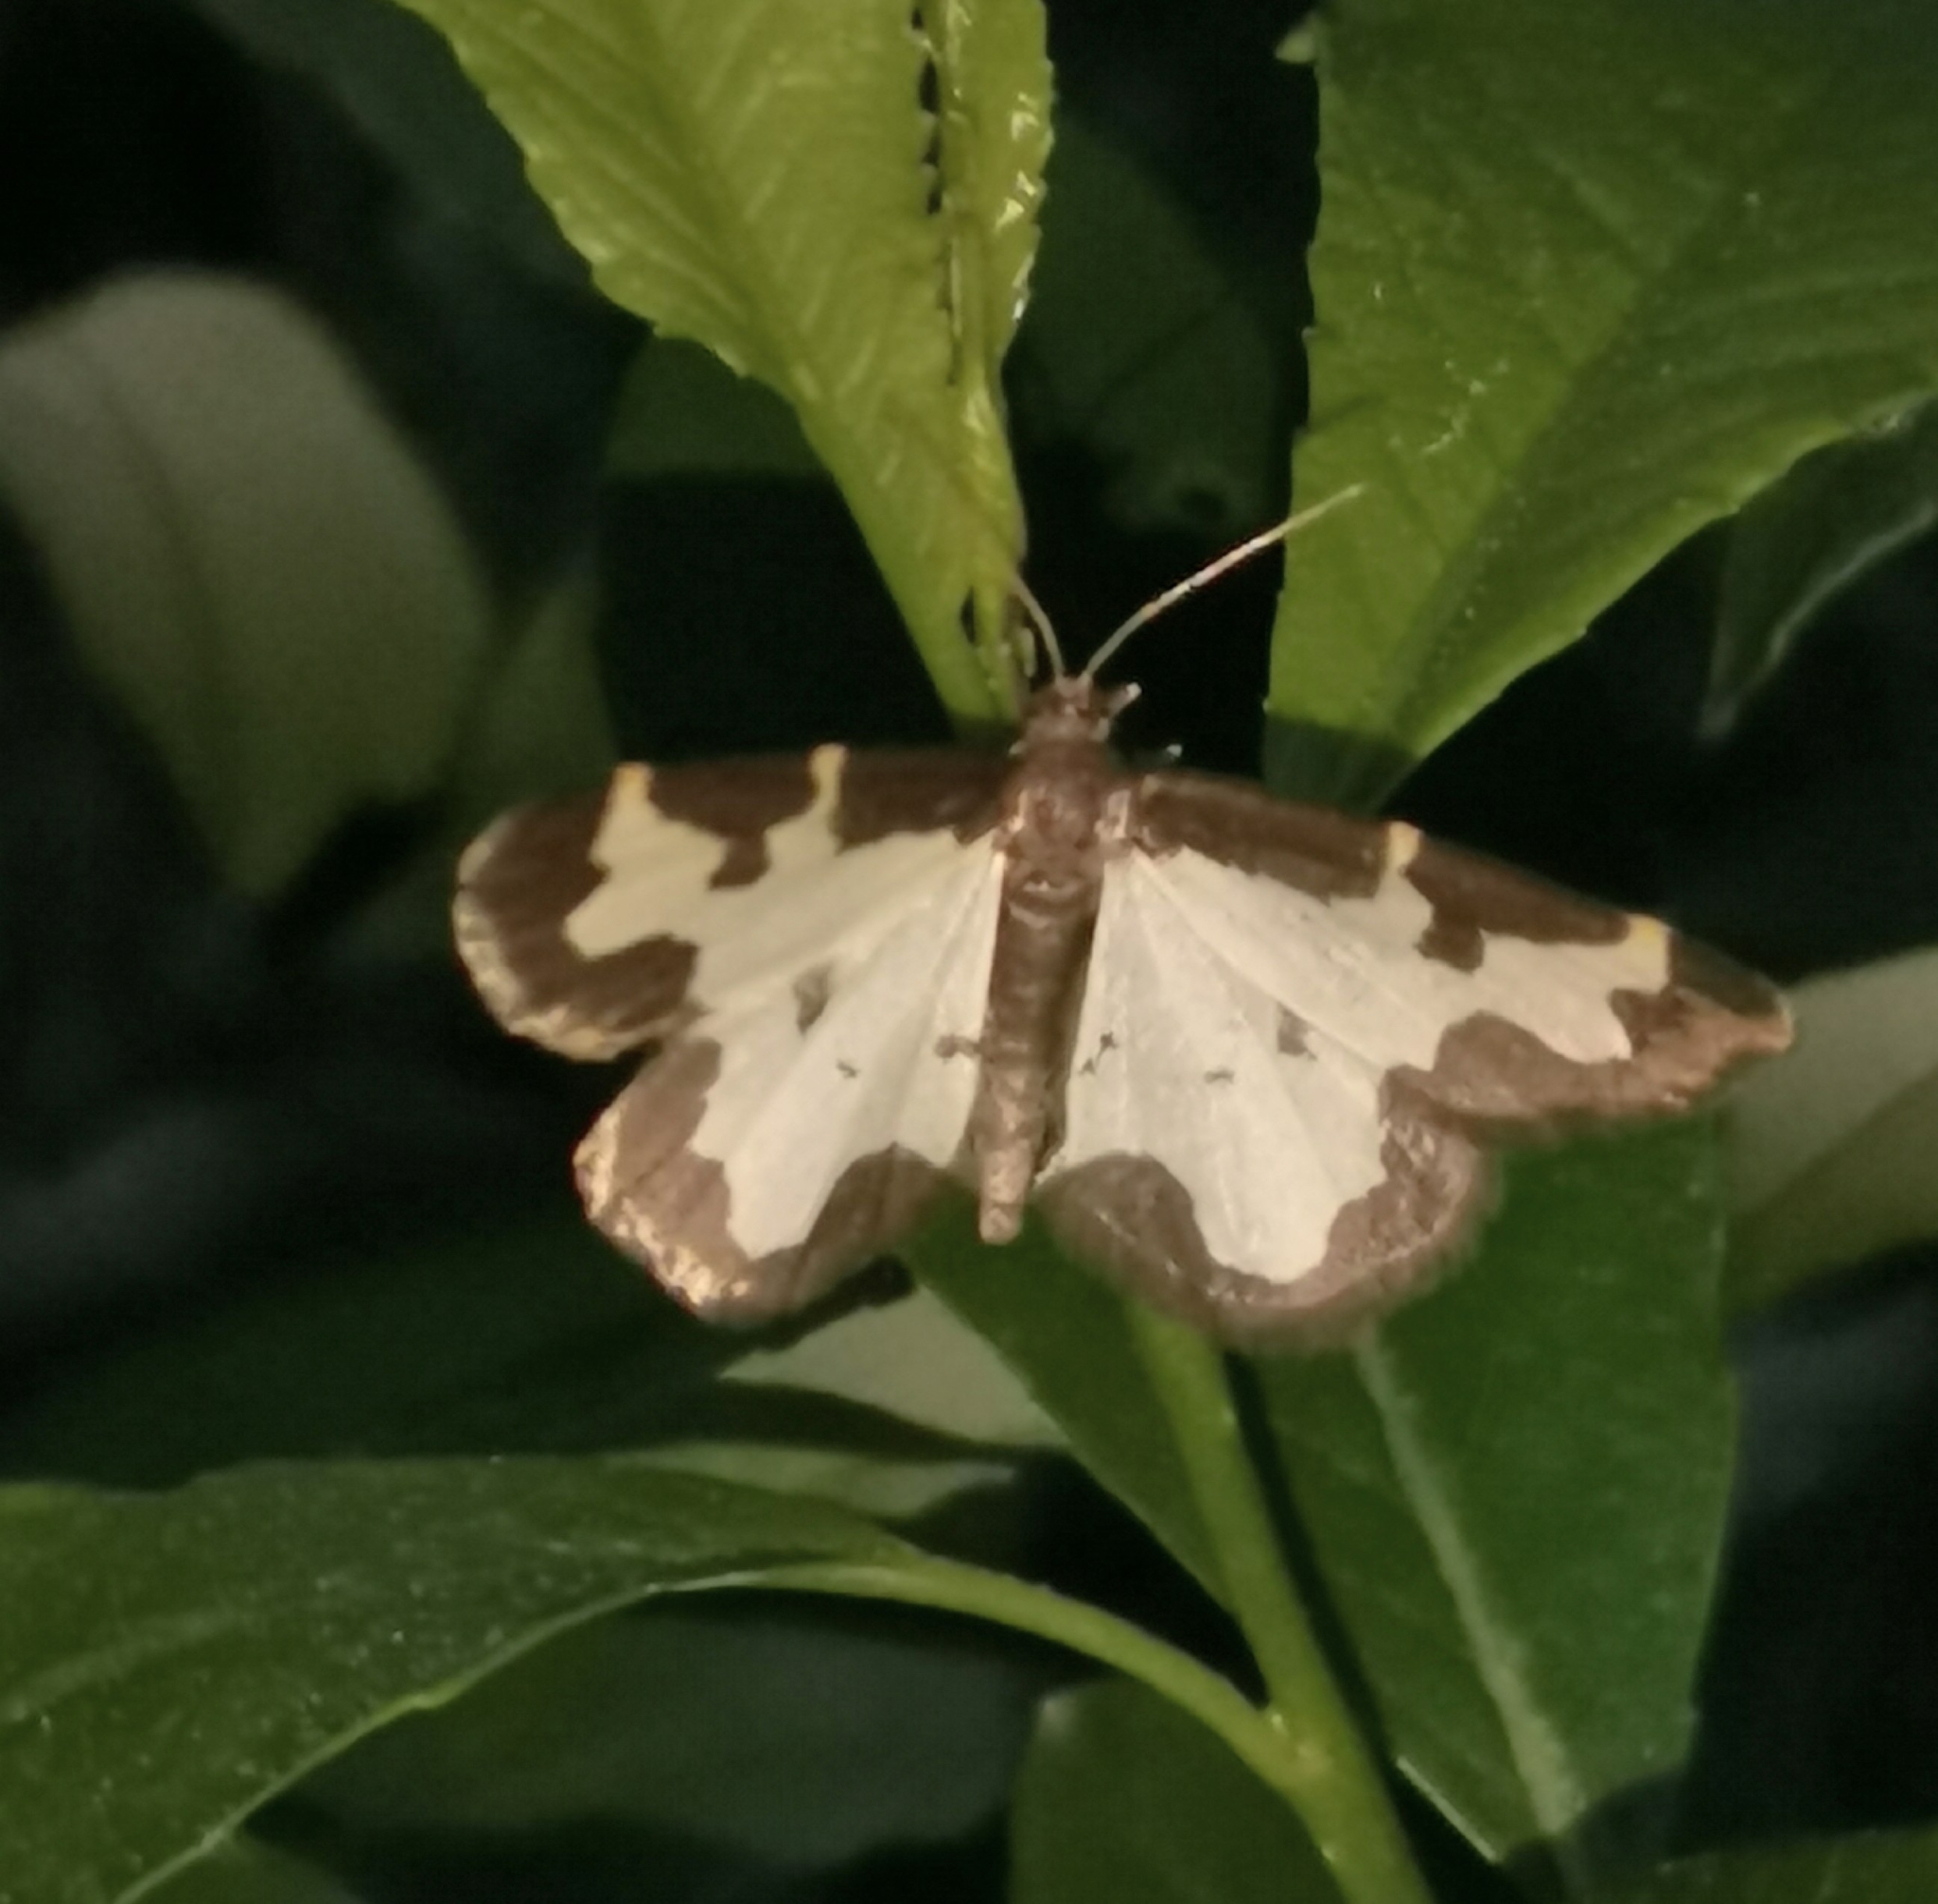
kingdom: Animalia
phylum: Arthropoda
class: Insecta
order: Lepidoptera
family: Geometridae
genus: Lomaspilis
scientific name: Lomaspilis marginata
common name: Clouded border
